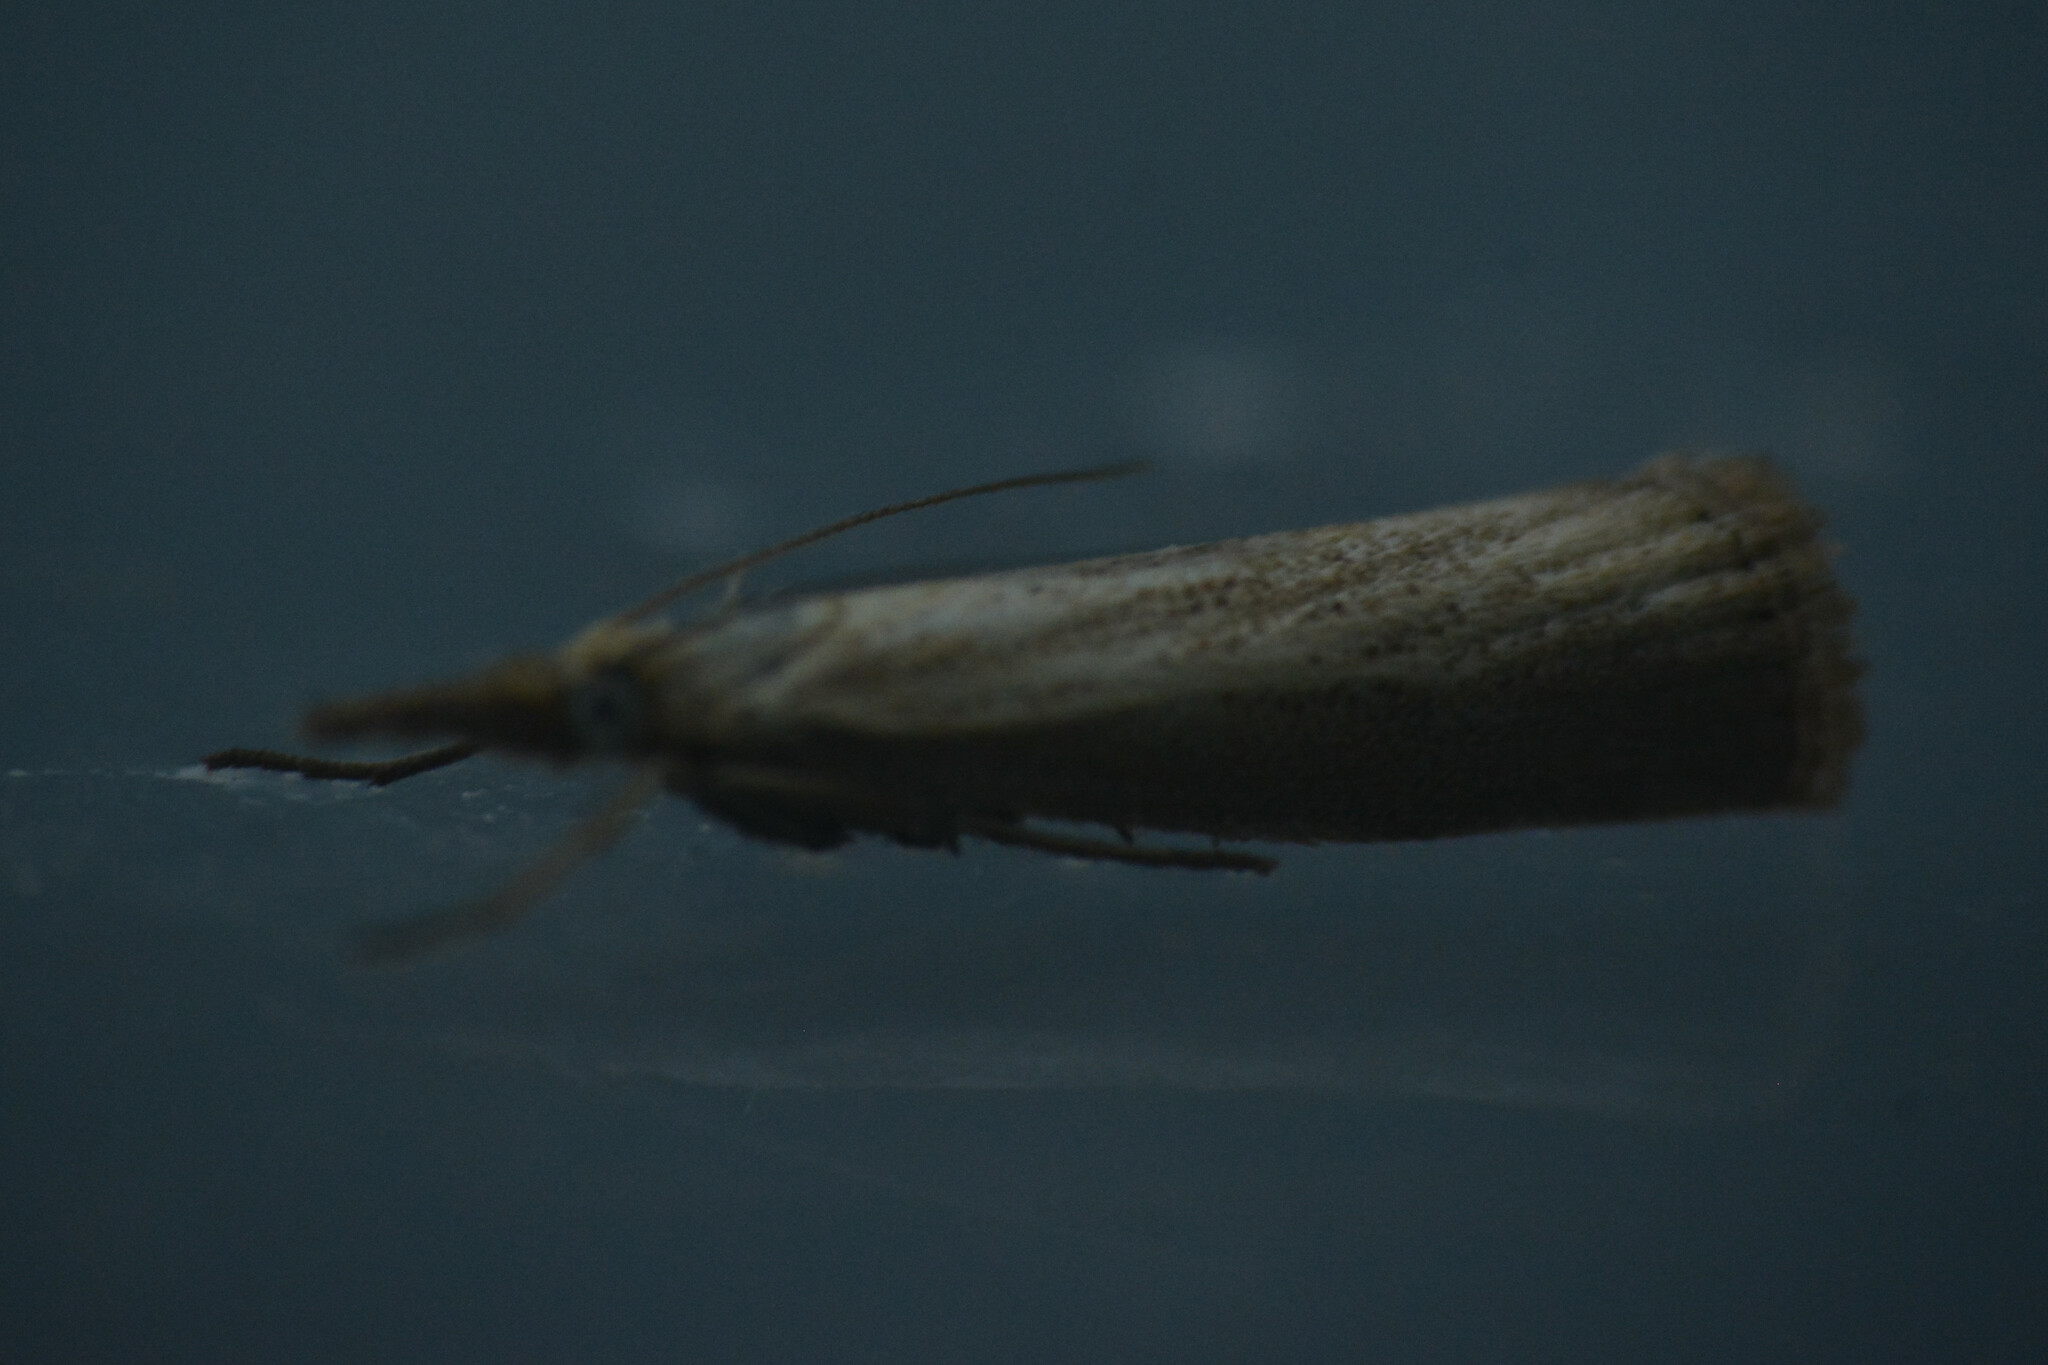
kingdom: Animalia
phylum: Arthropoda
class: Insecta
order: Lepidoptera
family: Crambidae
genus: Agriphila
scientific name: Agriphila straminella
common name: Straw grass-veneer
